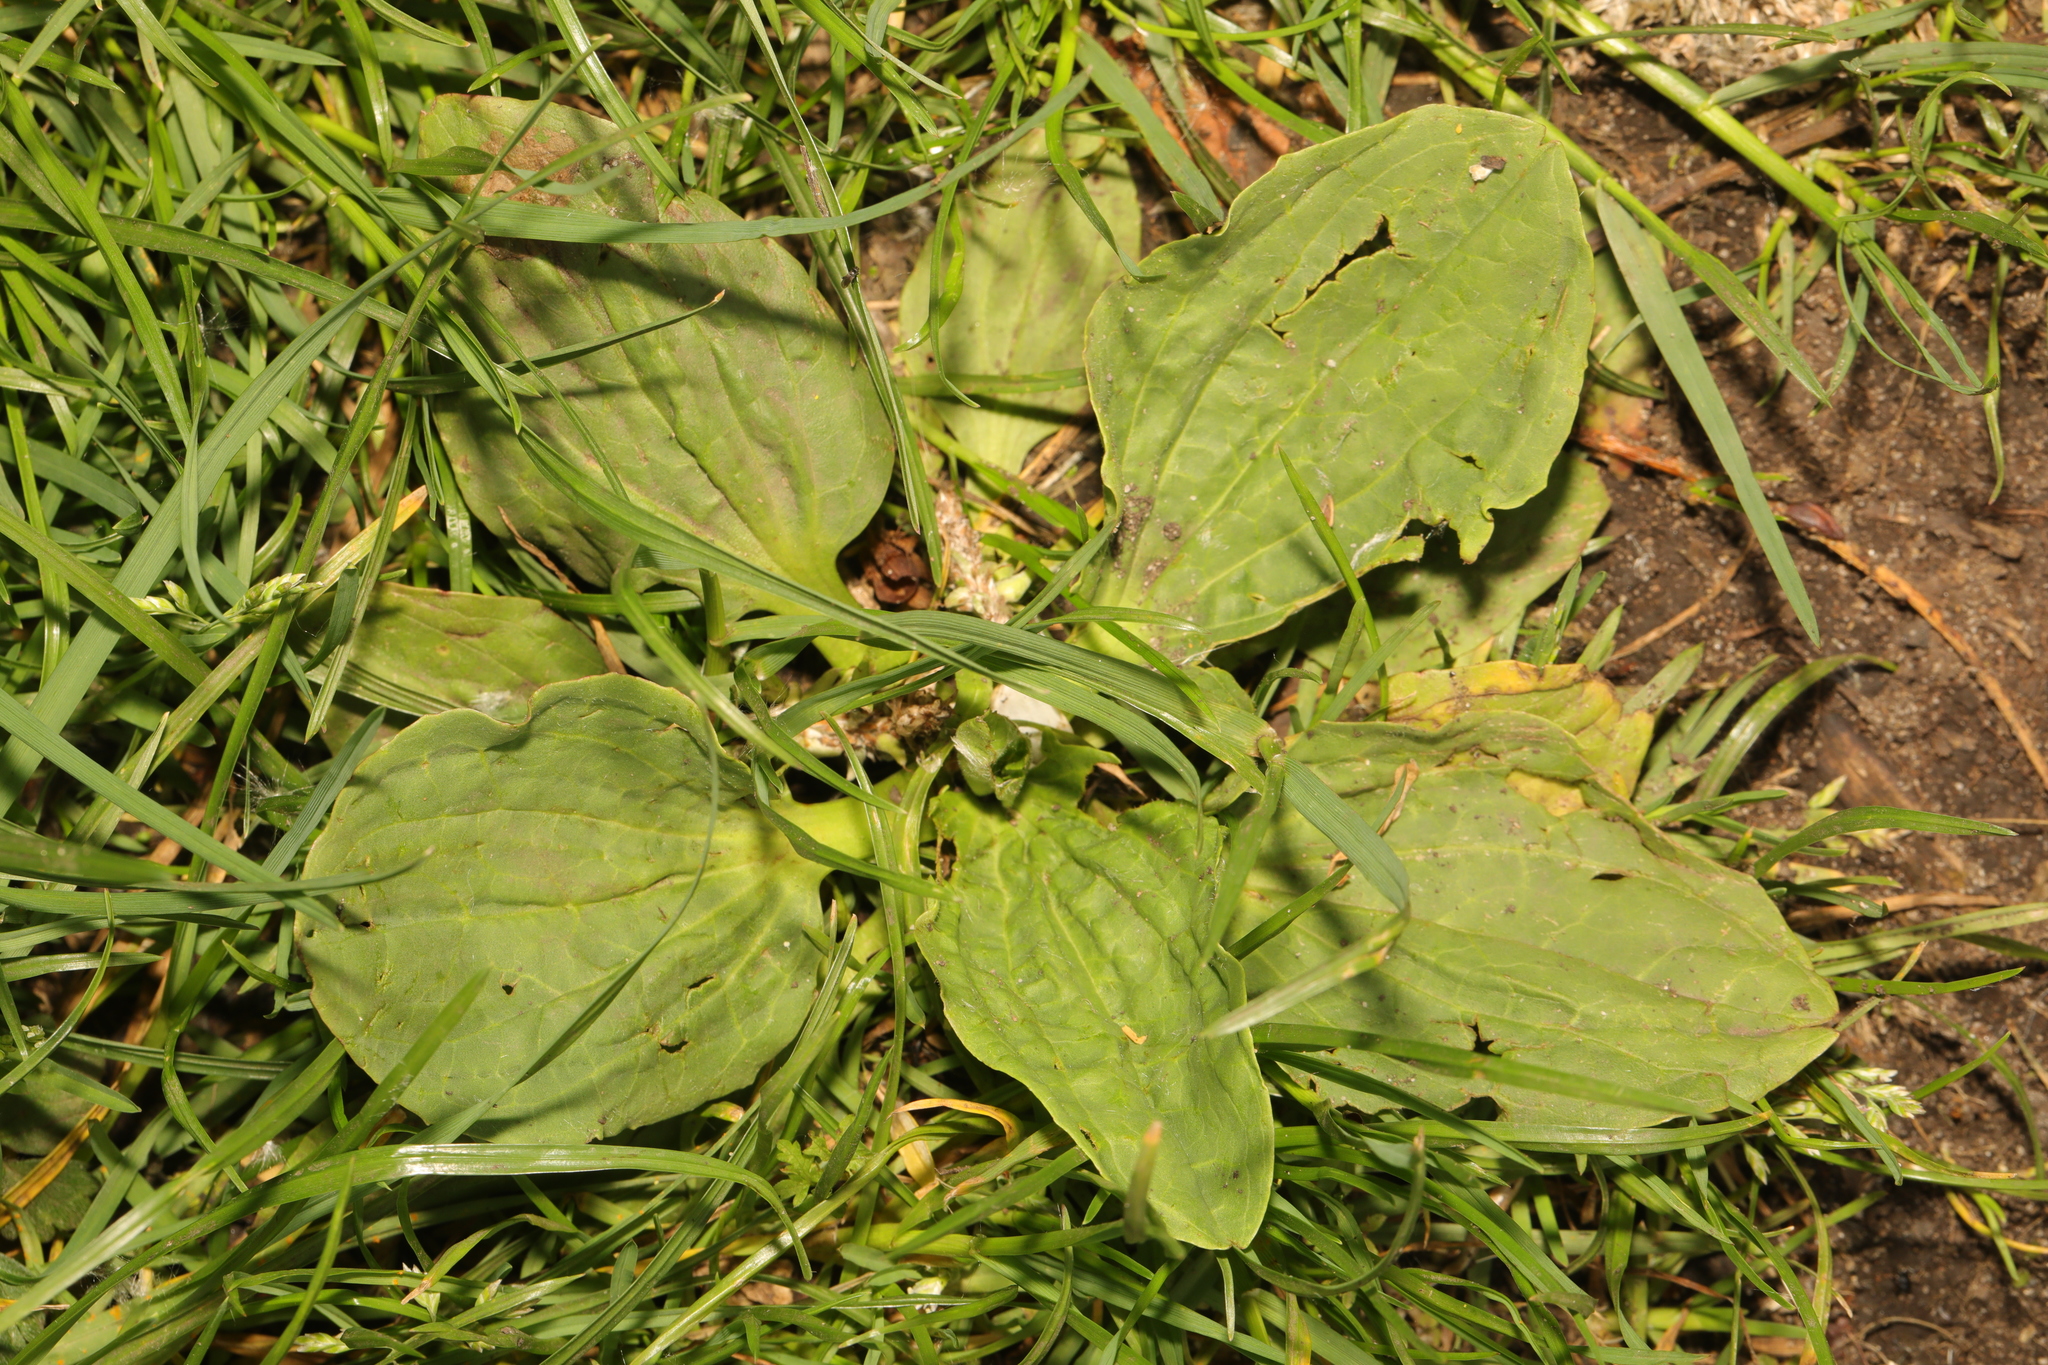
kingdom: Plantae
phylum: Tracheophyta
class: Magnoliopsida
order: Lamiales
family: Plantaginaceae
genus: Plantago
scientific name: Plantago major
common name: Common plantain
